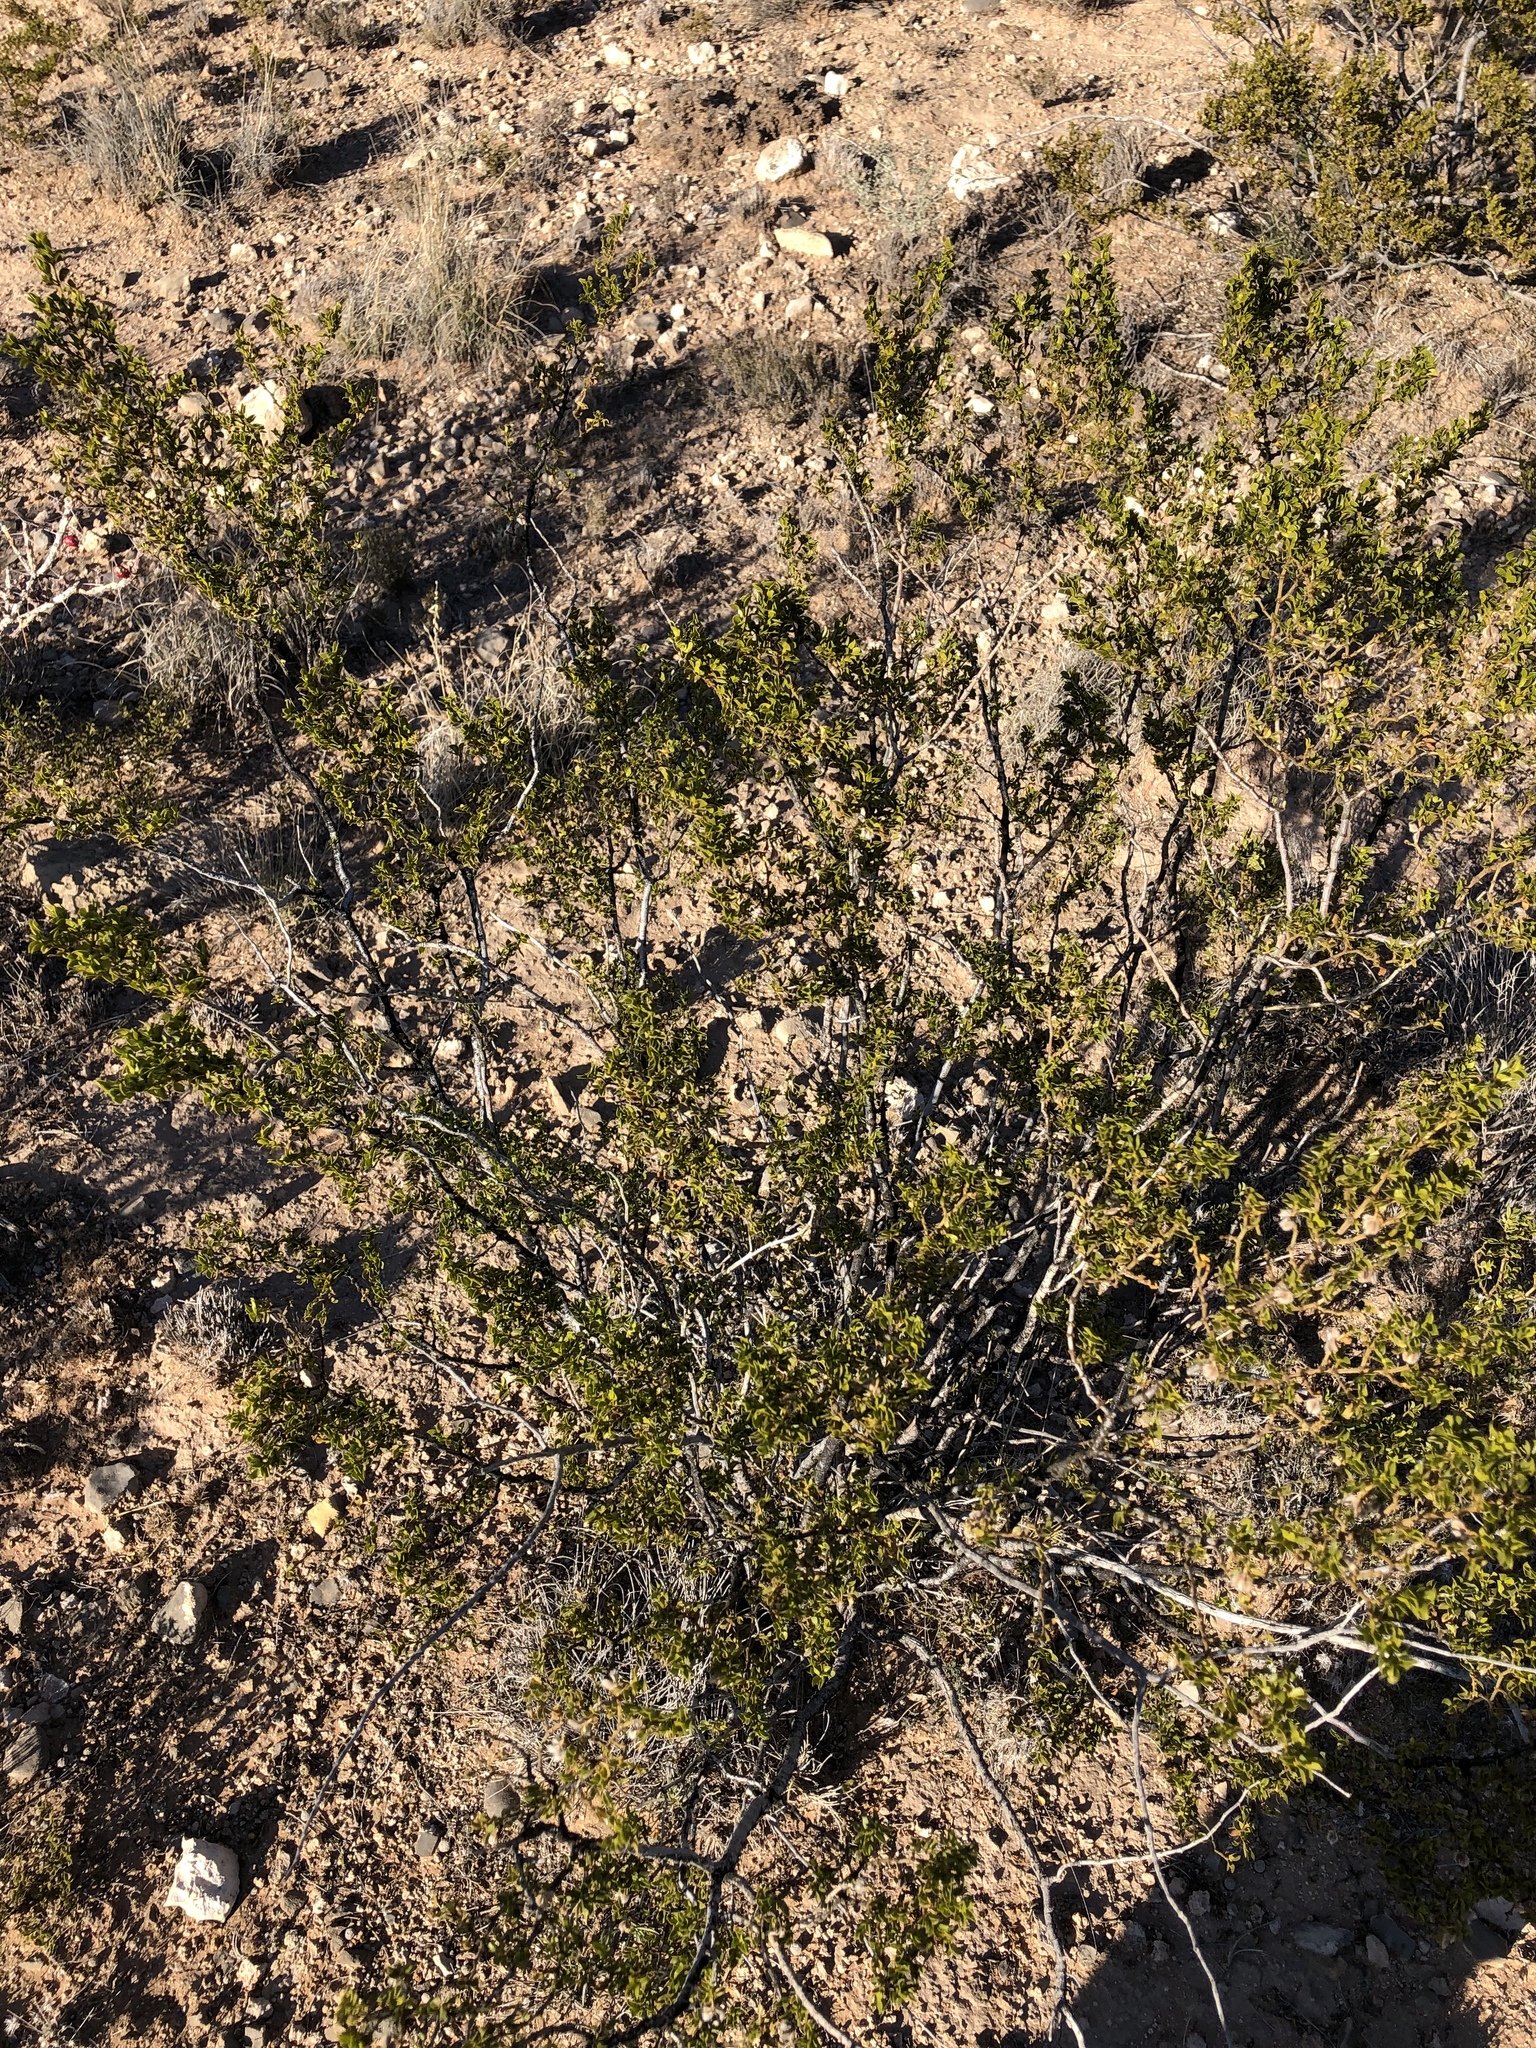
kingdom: Plantae
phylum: Tracheophyta
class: Magnoliopsida
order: Zygophyllales
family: Zygophyllaceae
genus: Larrea
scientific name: Larrea tridentata
